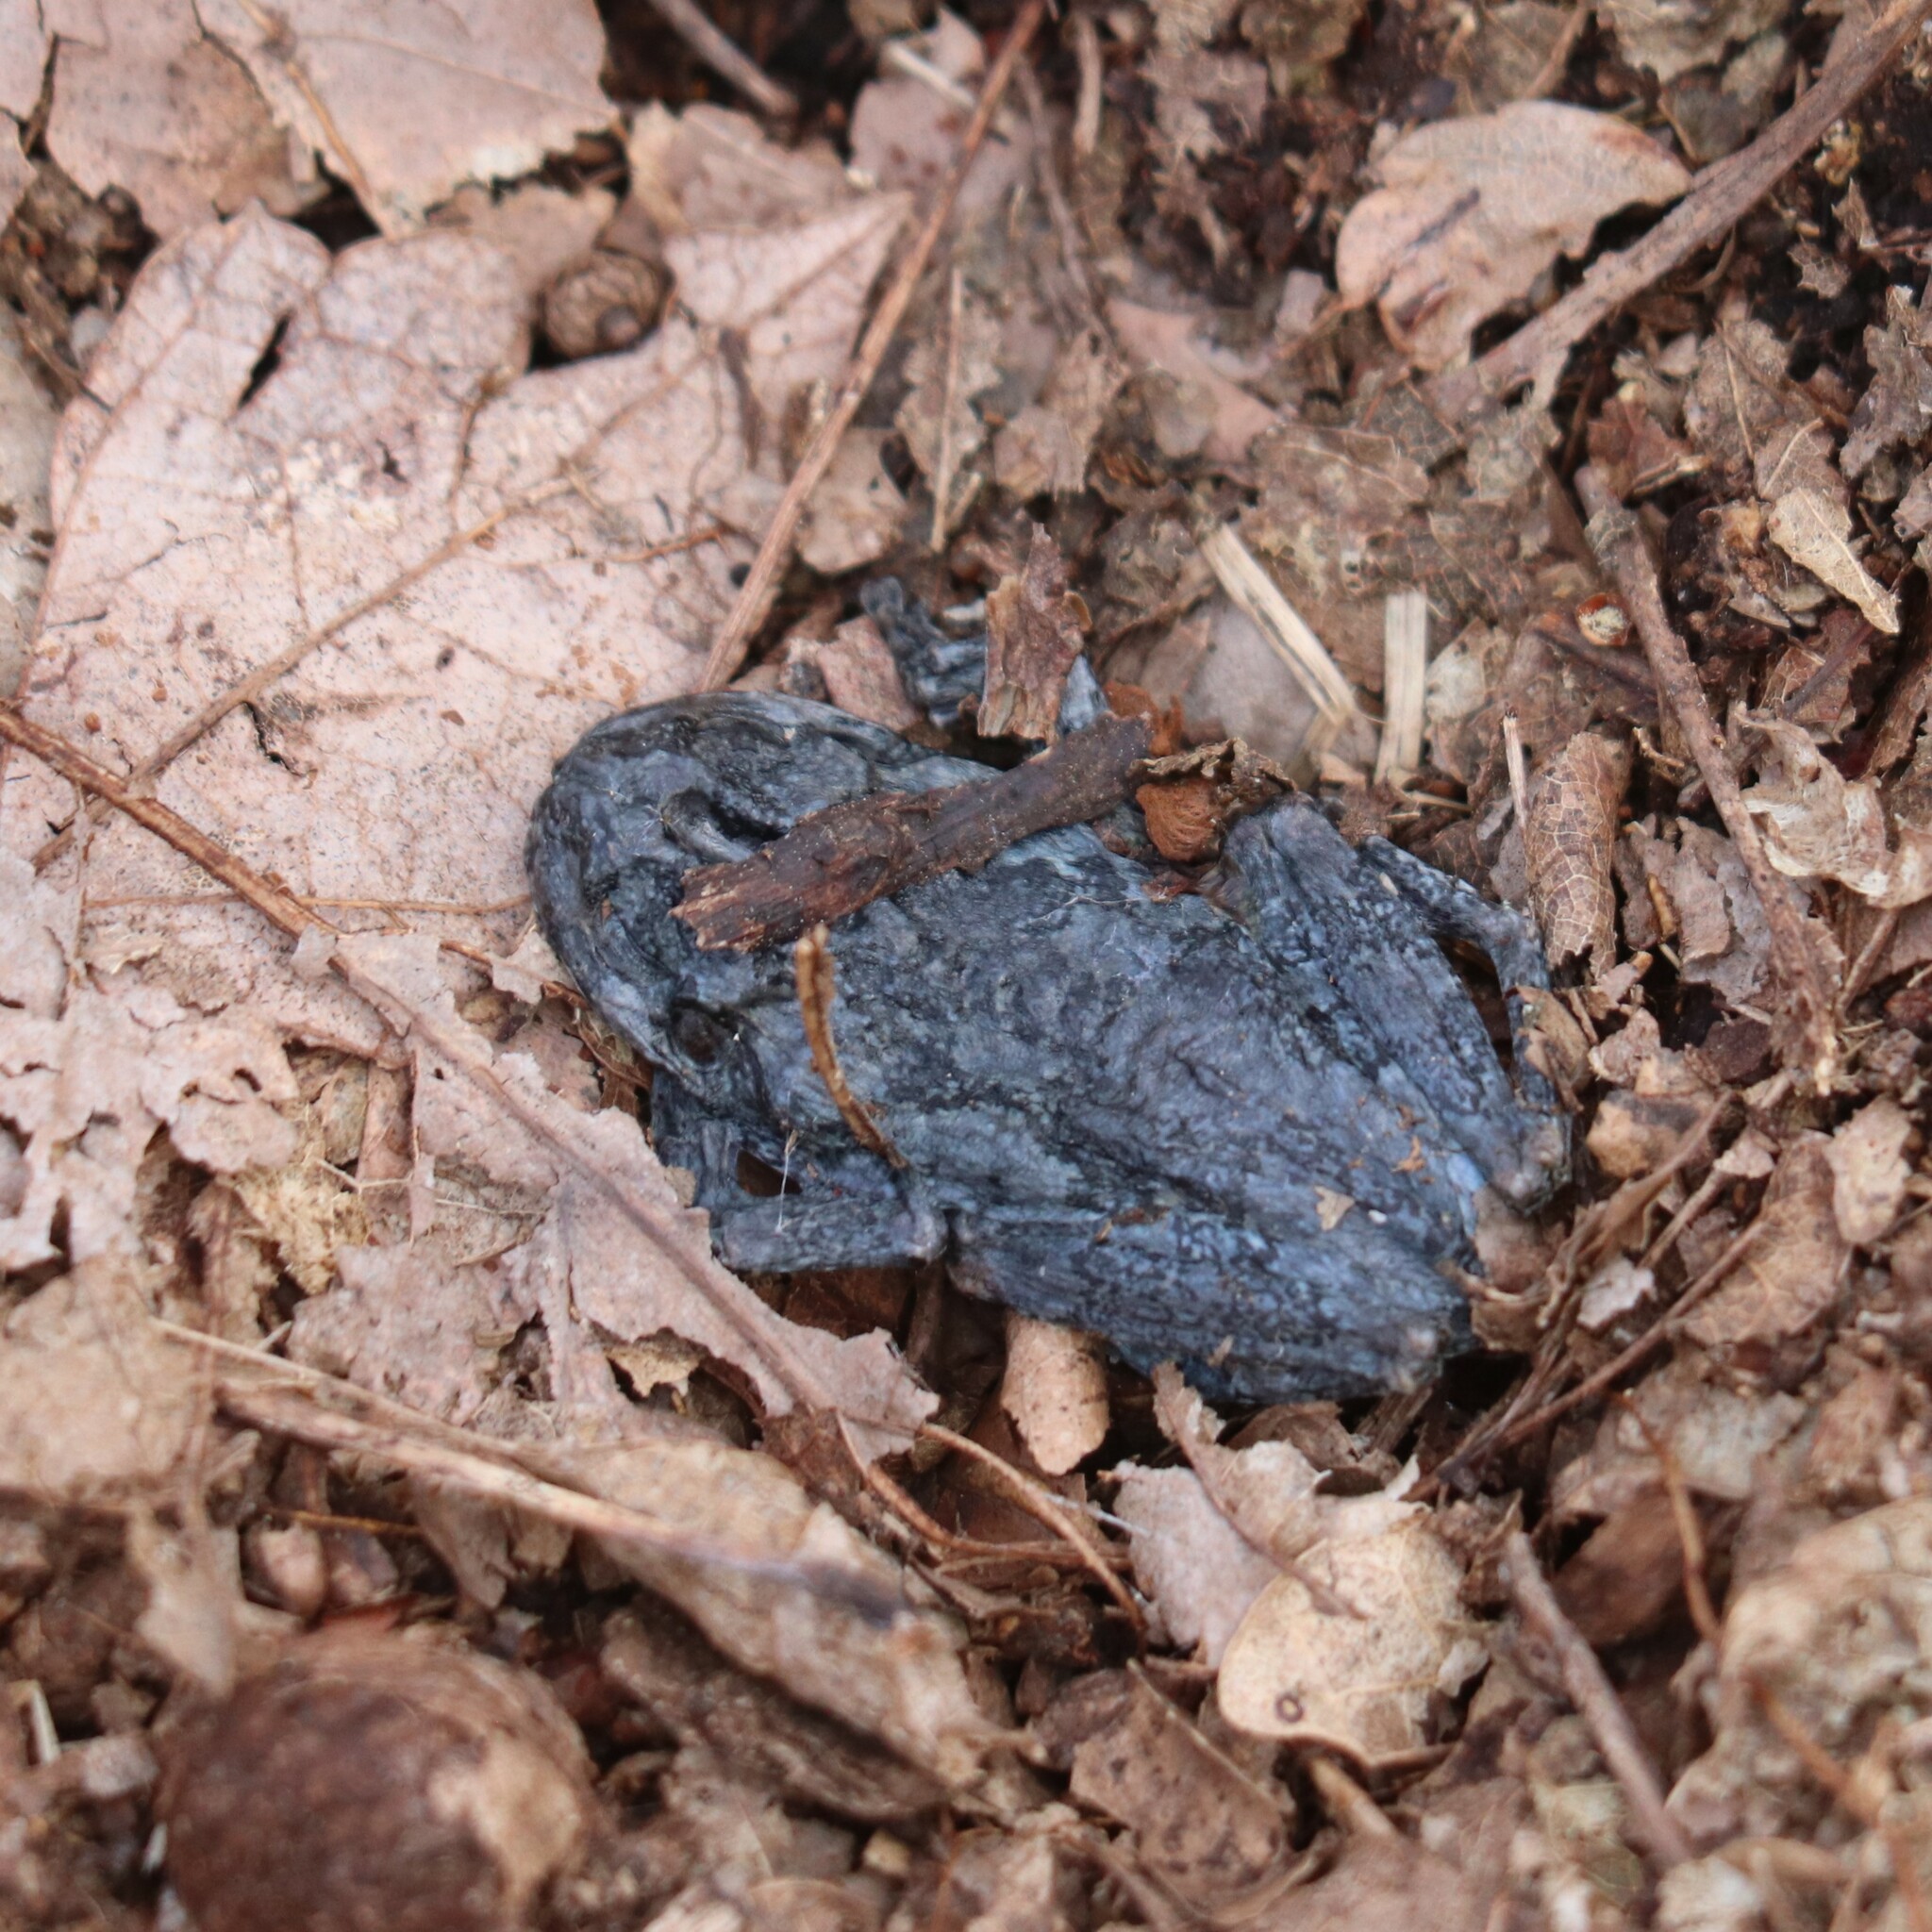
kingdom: Animalia
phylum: Chordata
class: Amphibia
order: Anura
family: Hylidae
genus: Dryophytes
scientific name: Dryophytes versicolor
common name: Gray treefrog
